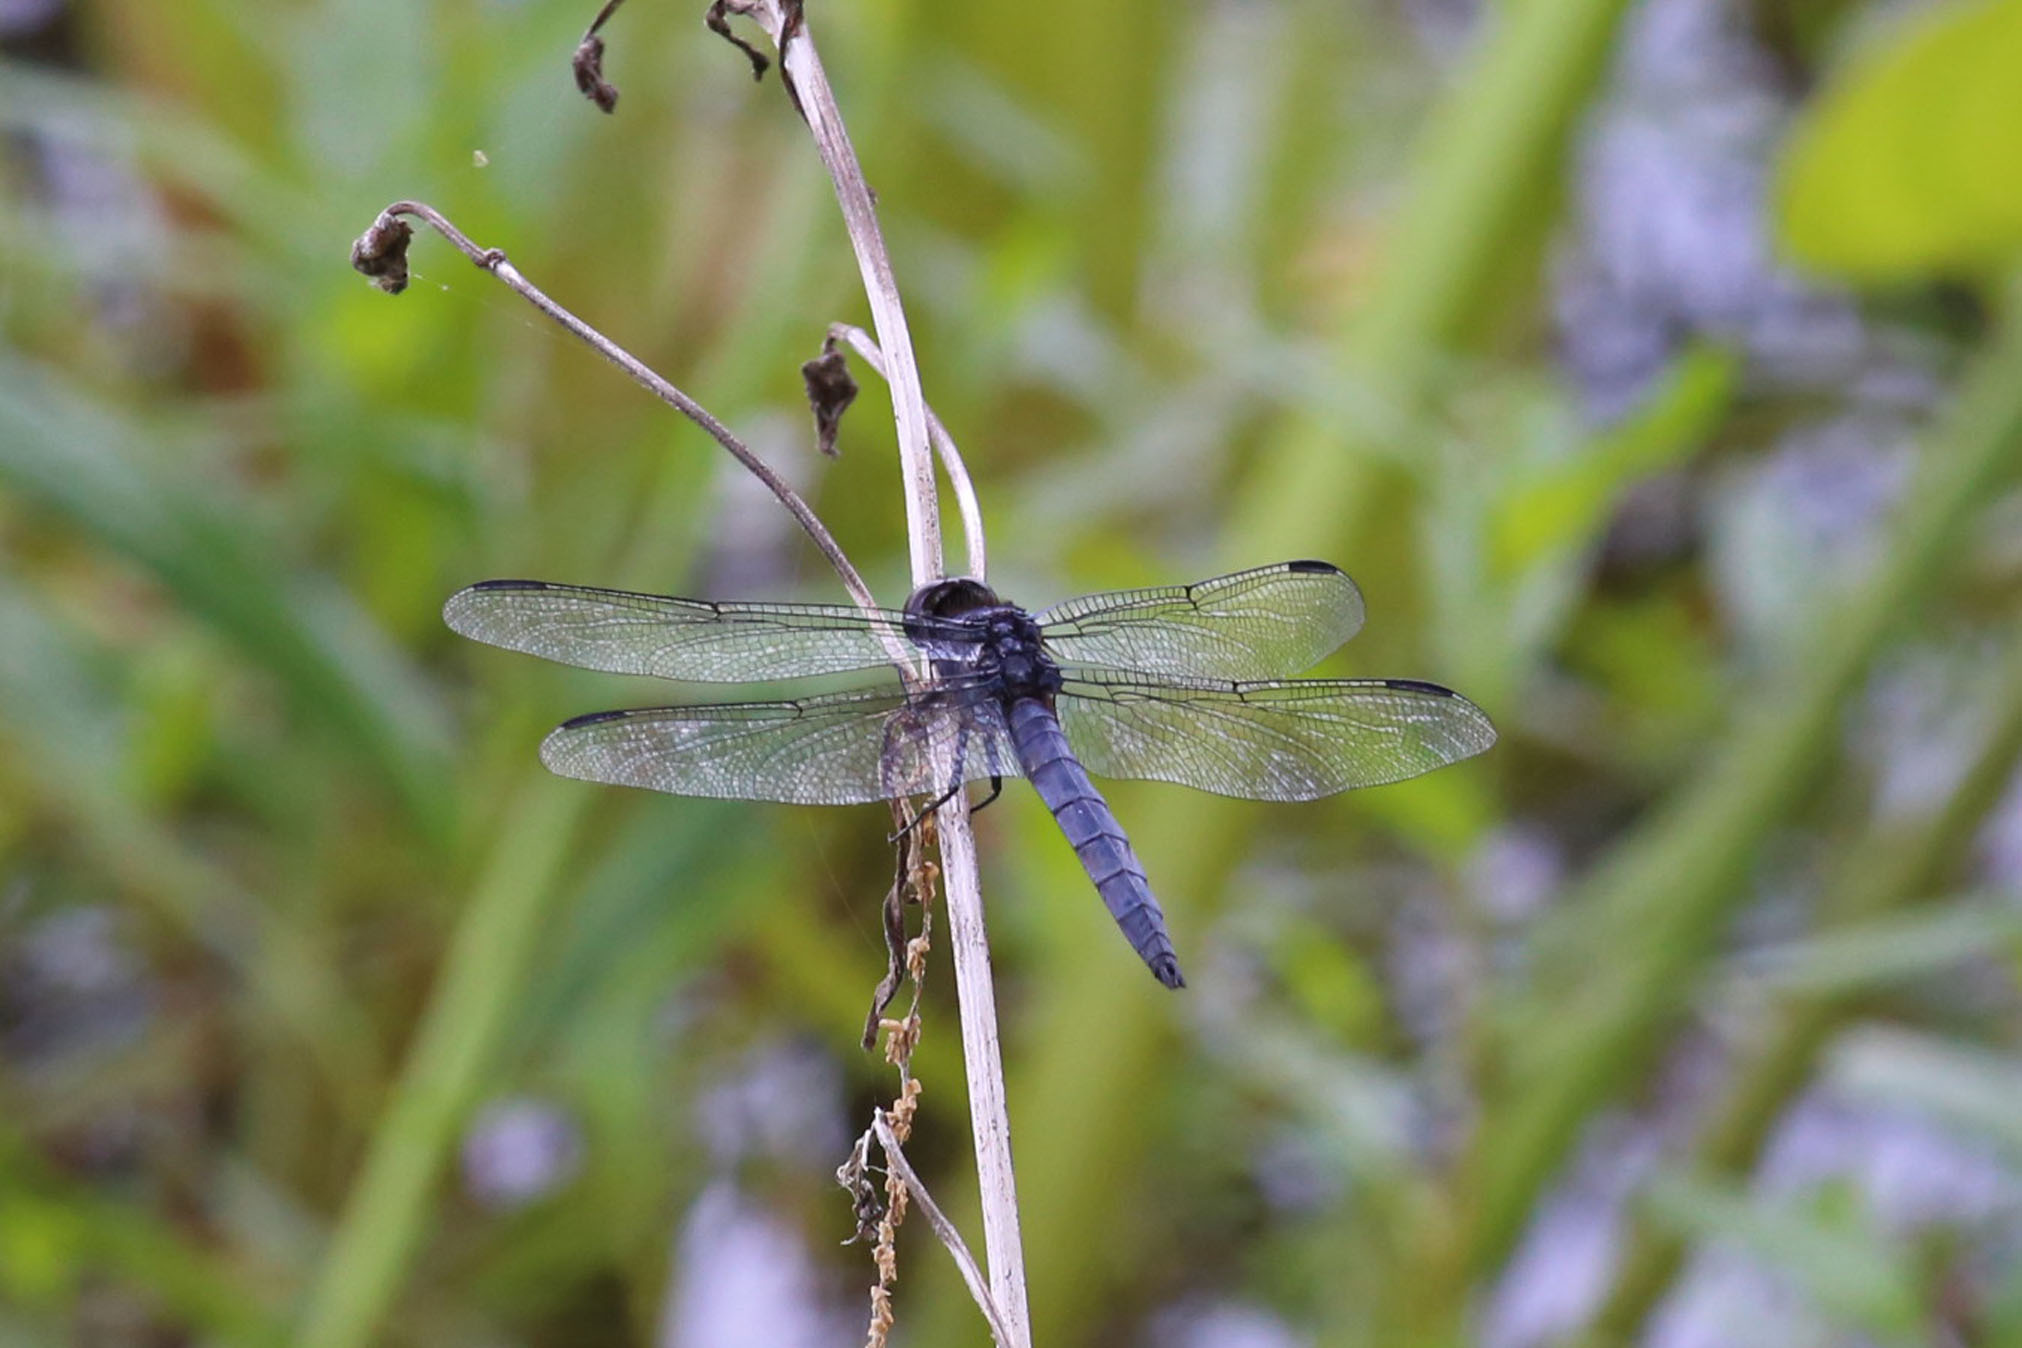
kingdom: Animalia
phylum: Arthropoda
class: Insecta
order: Odonata
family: Libellulidae
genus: Libellula
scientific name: Libellula incesta
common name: Slaty skimmer
